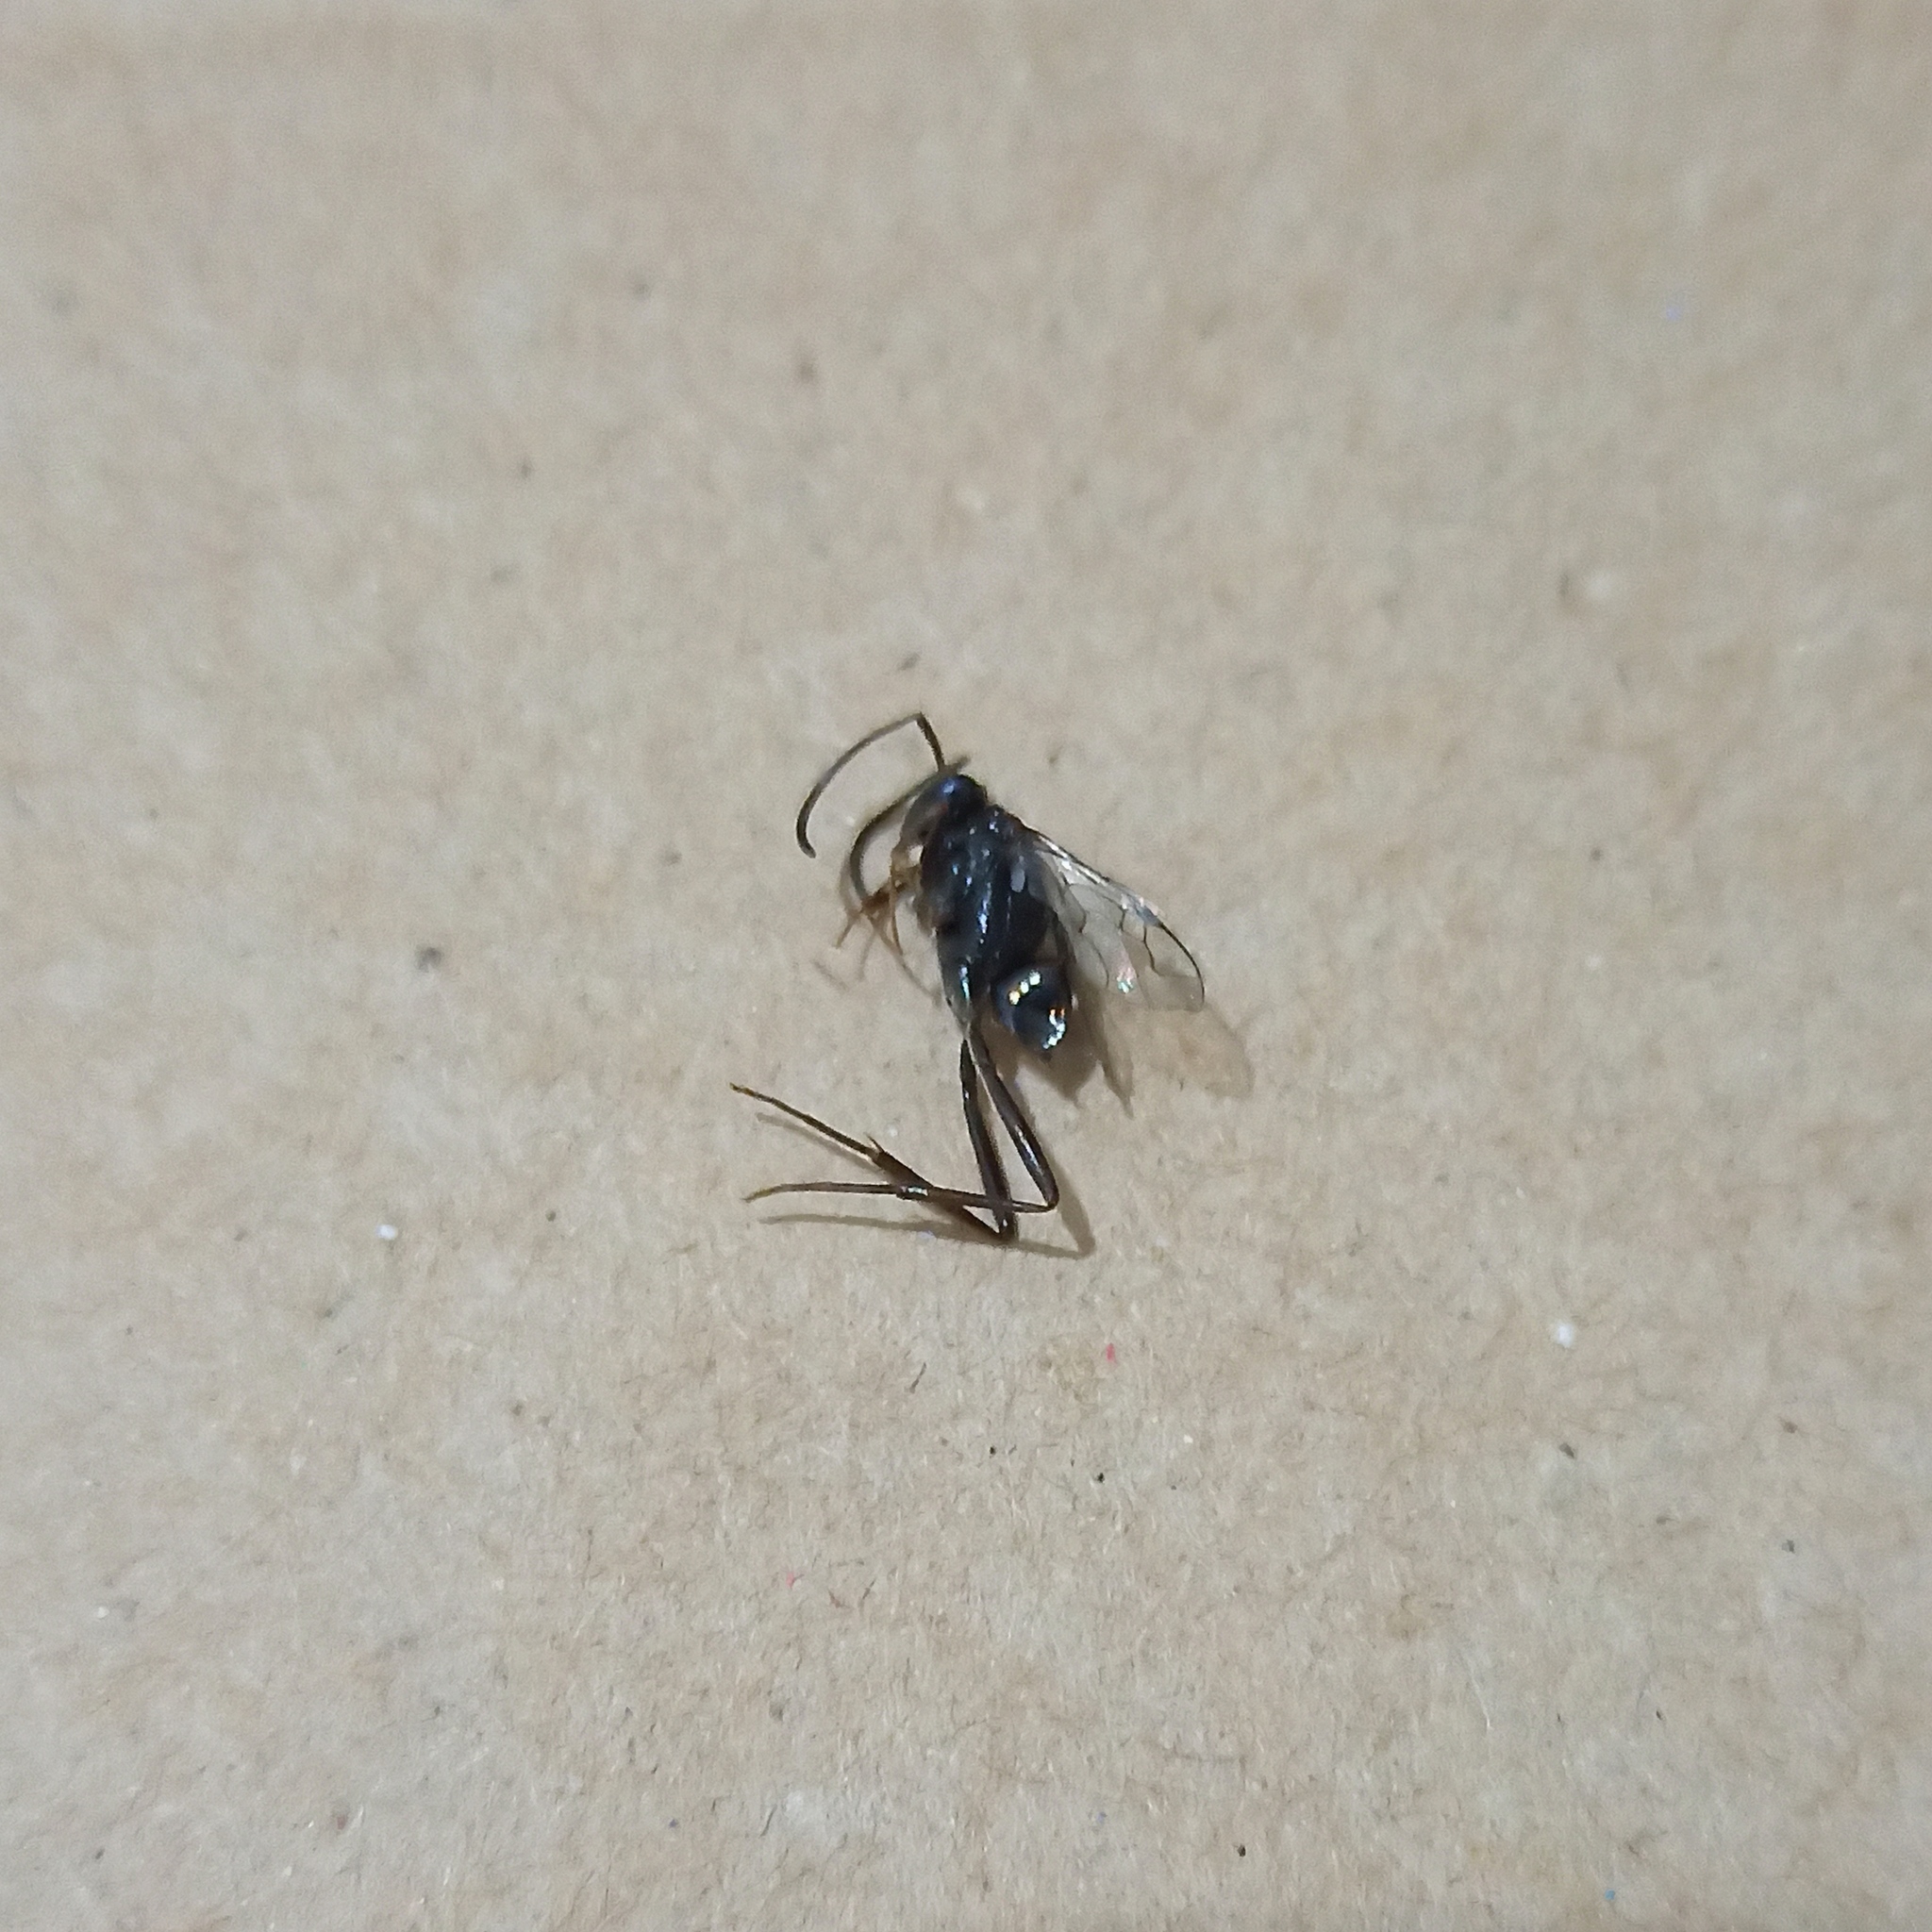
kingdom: Animalia
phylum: Arthropoda
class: Insecta
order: Hymenoptera
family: Evaniidae
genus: Evania
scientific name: Evania appendigaster
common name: Ensign wasp
